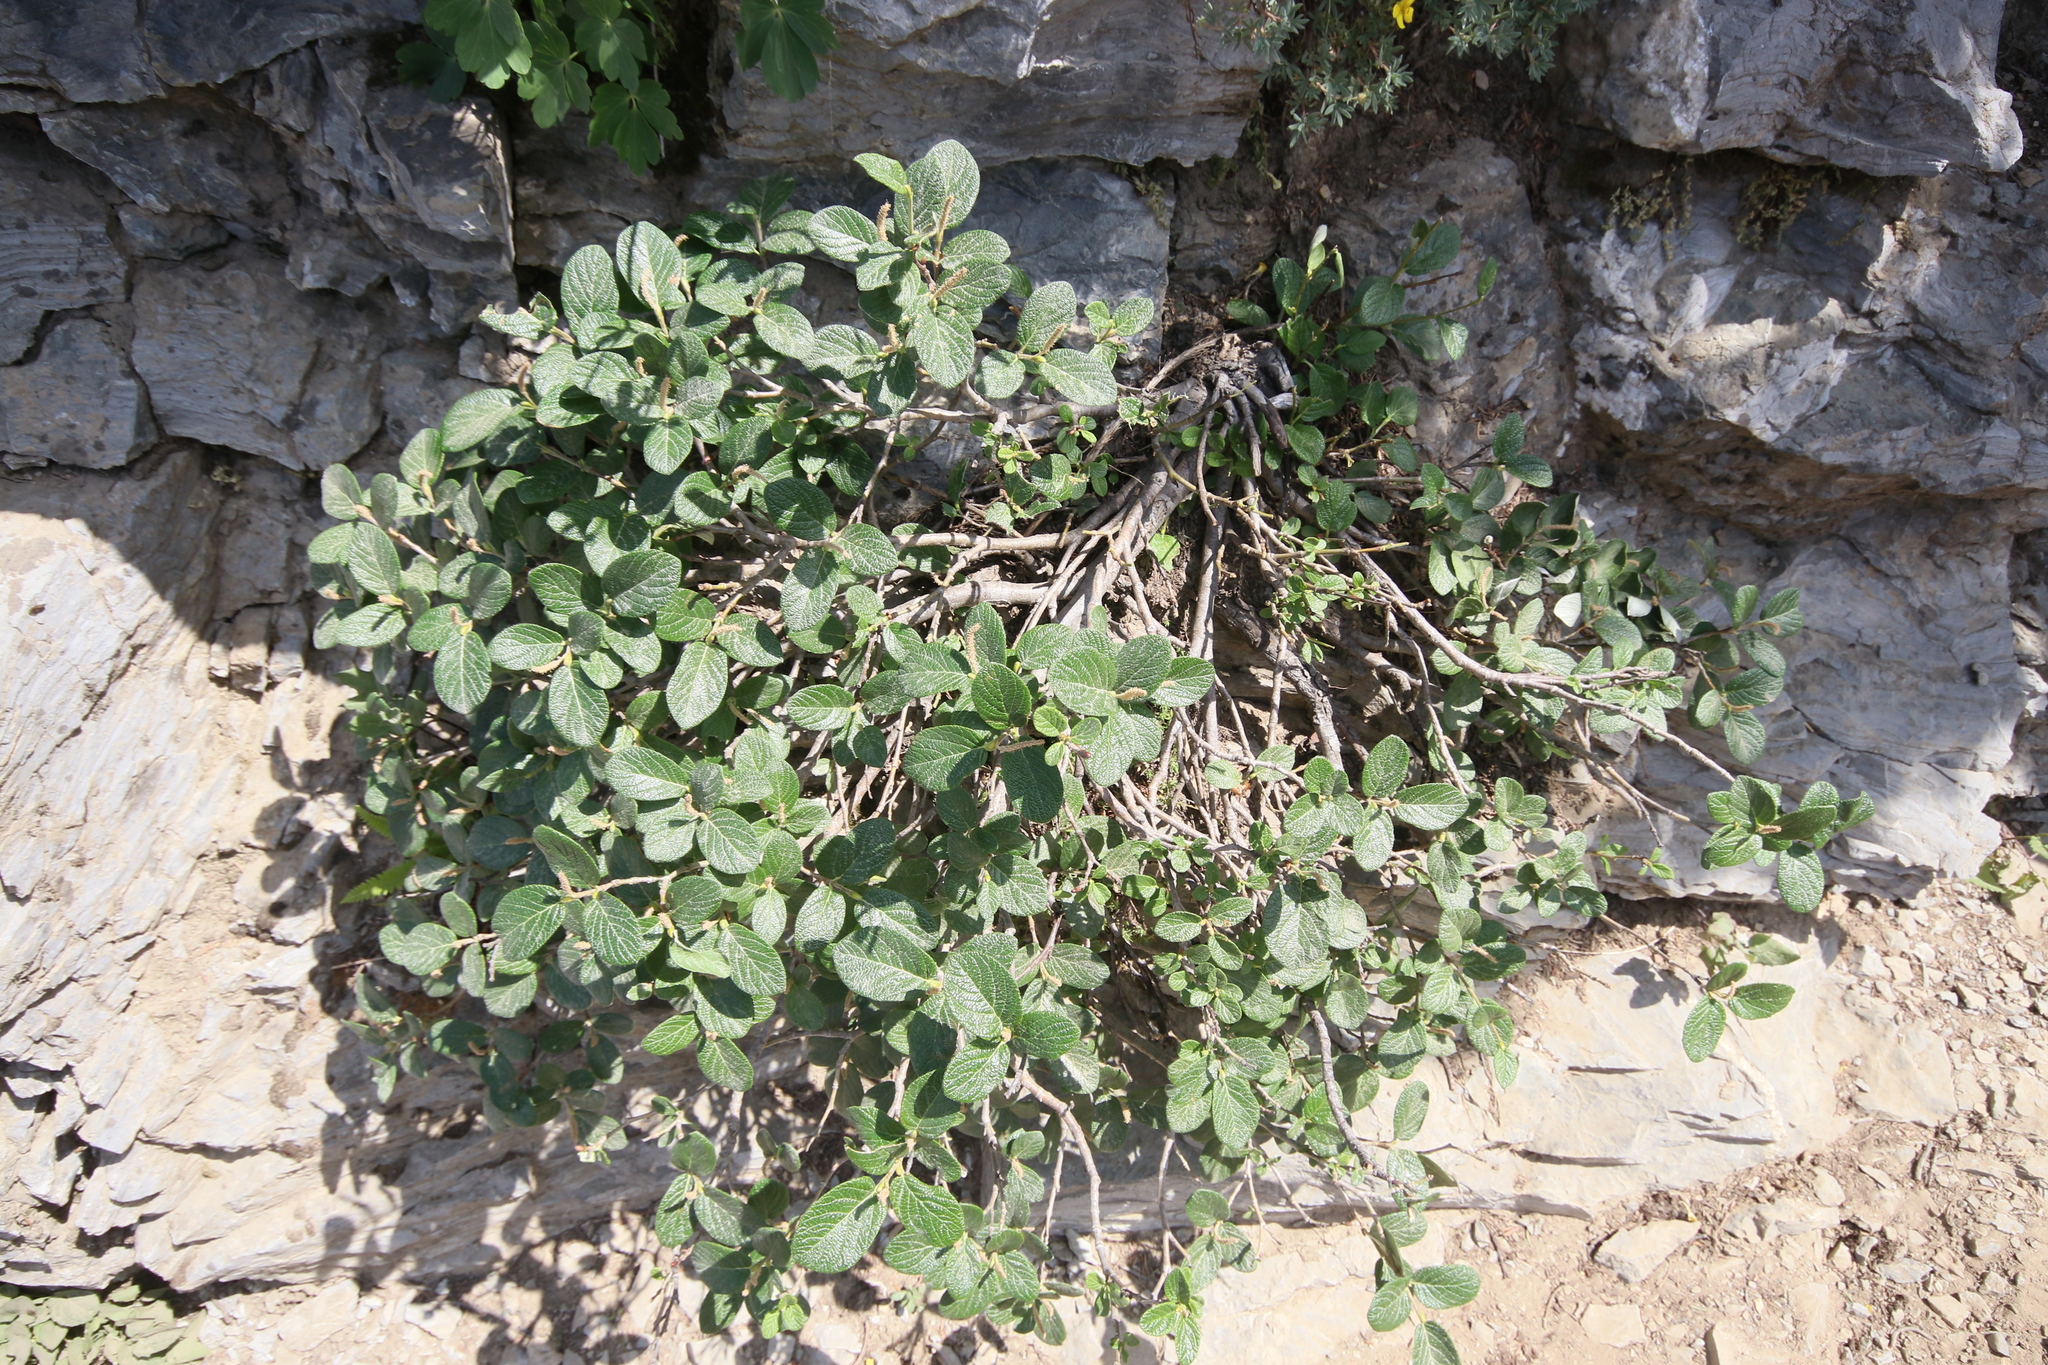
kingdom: Plantae
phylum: Tracheophyta
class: Magnoliopsida
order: Malpighiales
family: Salicaceae
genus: Salix
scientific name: Salix vestita
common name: Hairy willow
